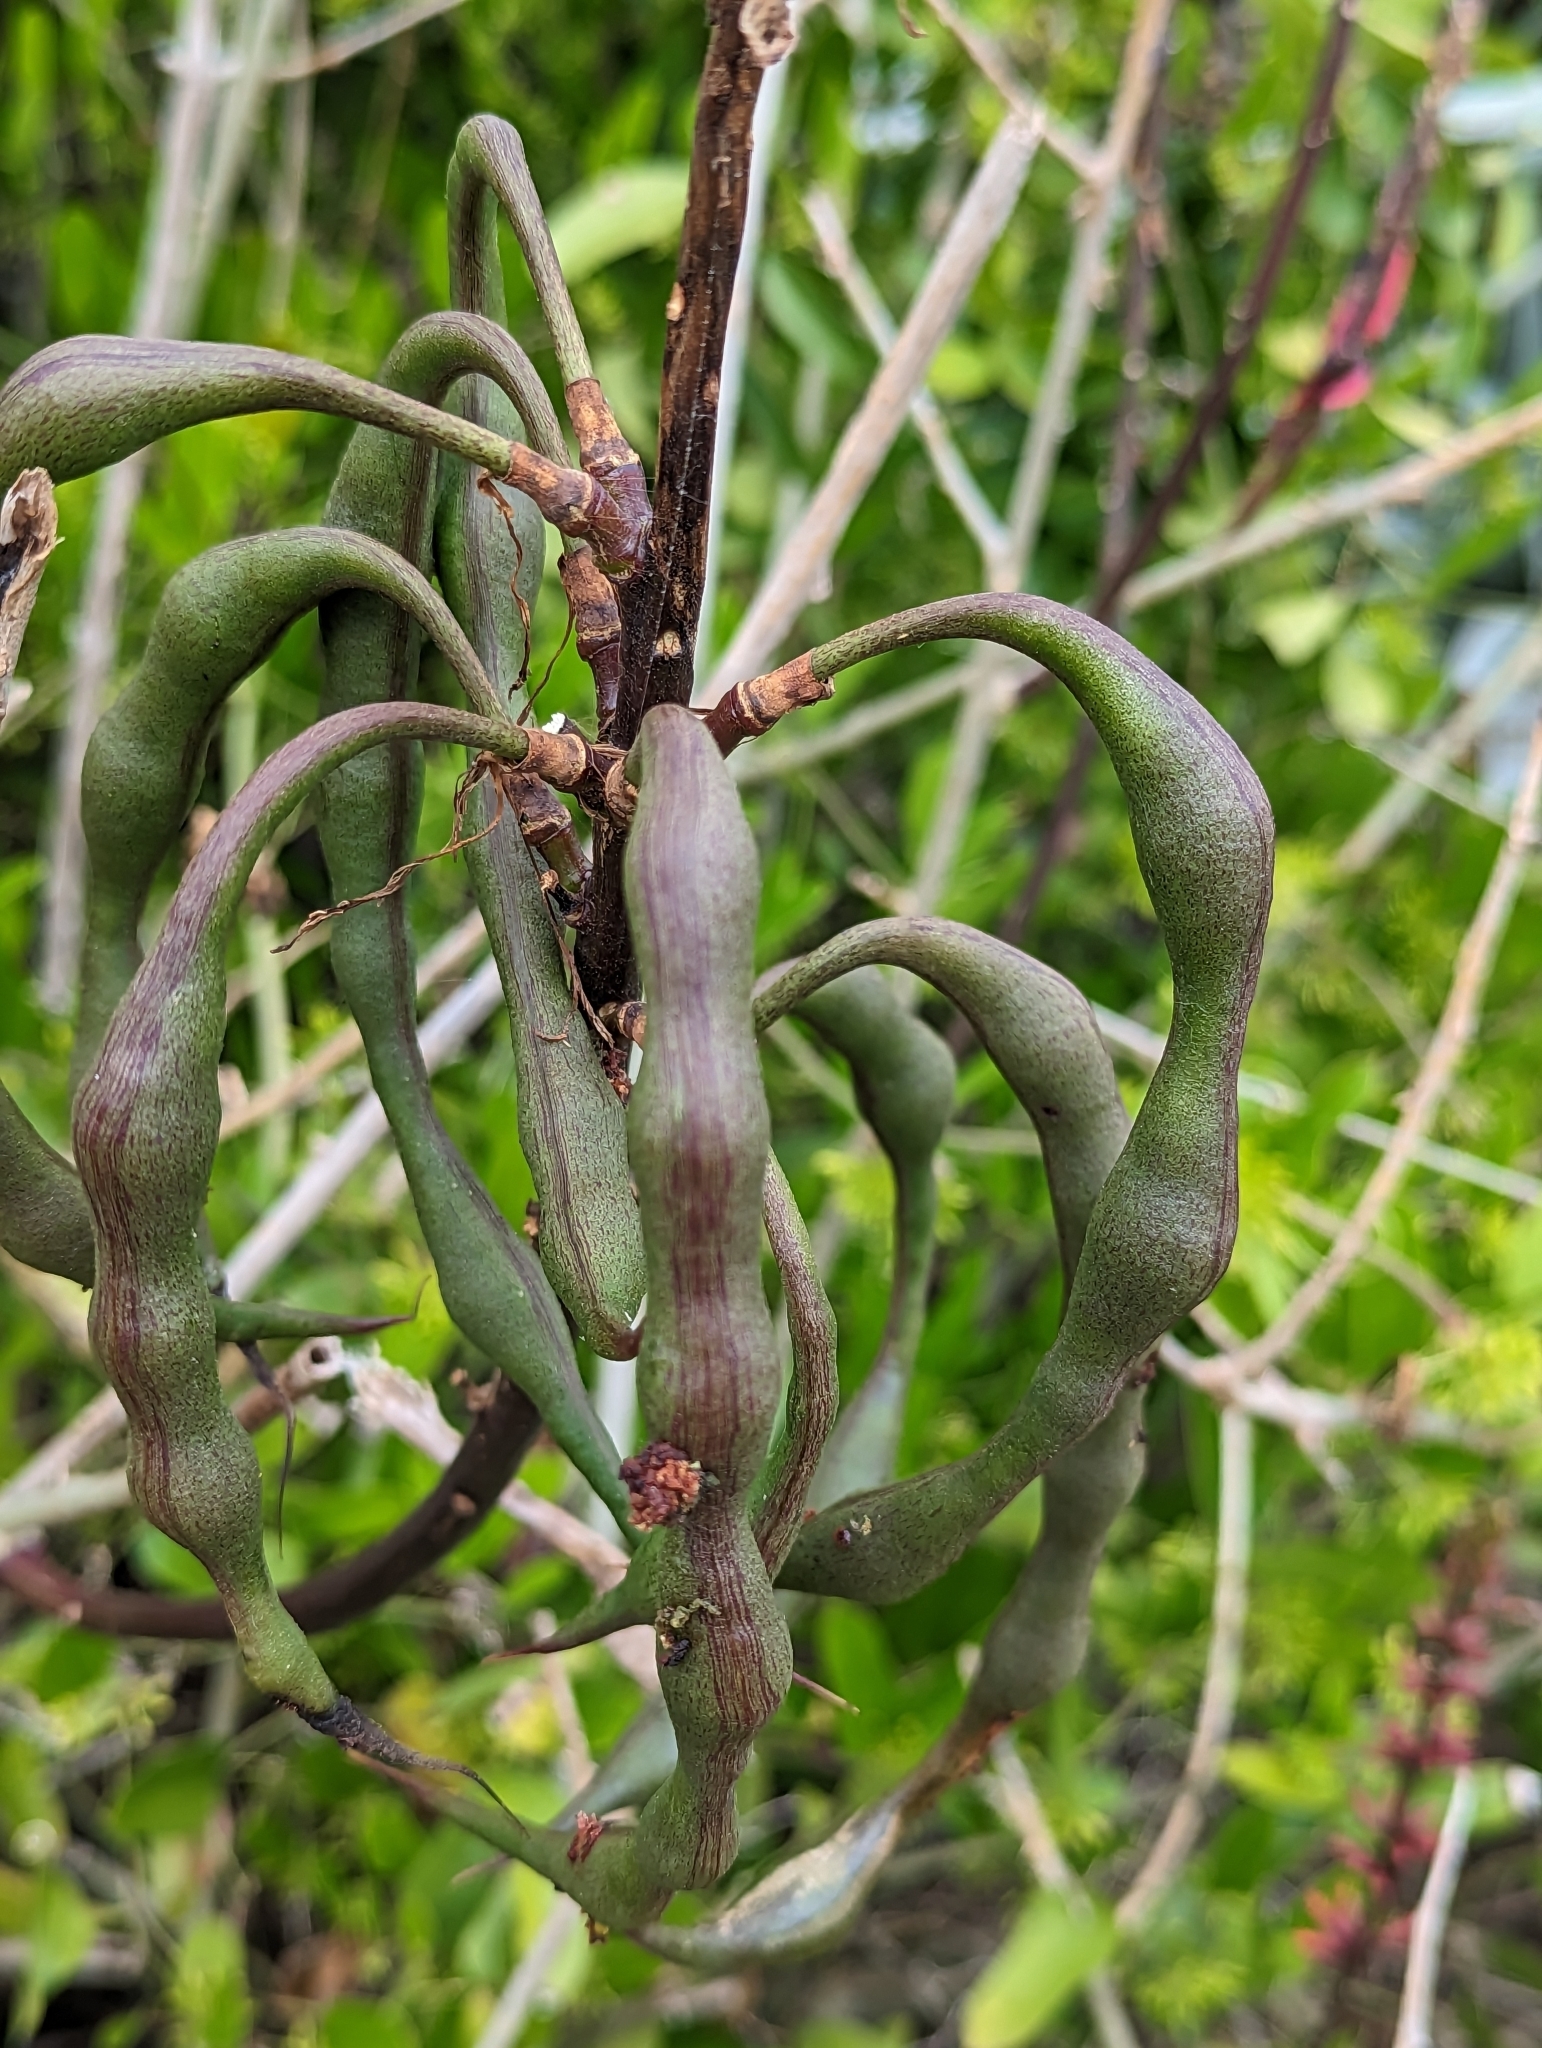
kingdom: Plantae
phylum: Tracheophyta
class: Magnoliopsida
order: Fabales
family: Fabaceae
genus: Erythrina
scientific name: Erythrina herbacea
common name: Coral-bean
